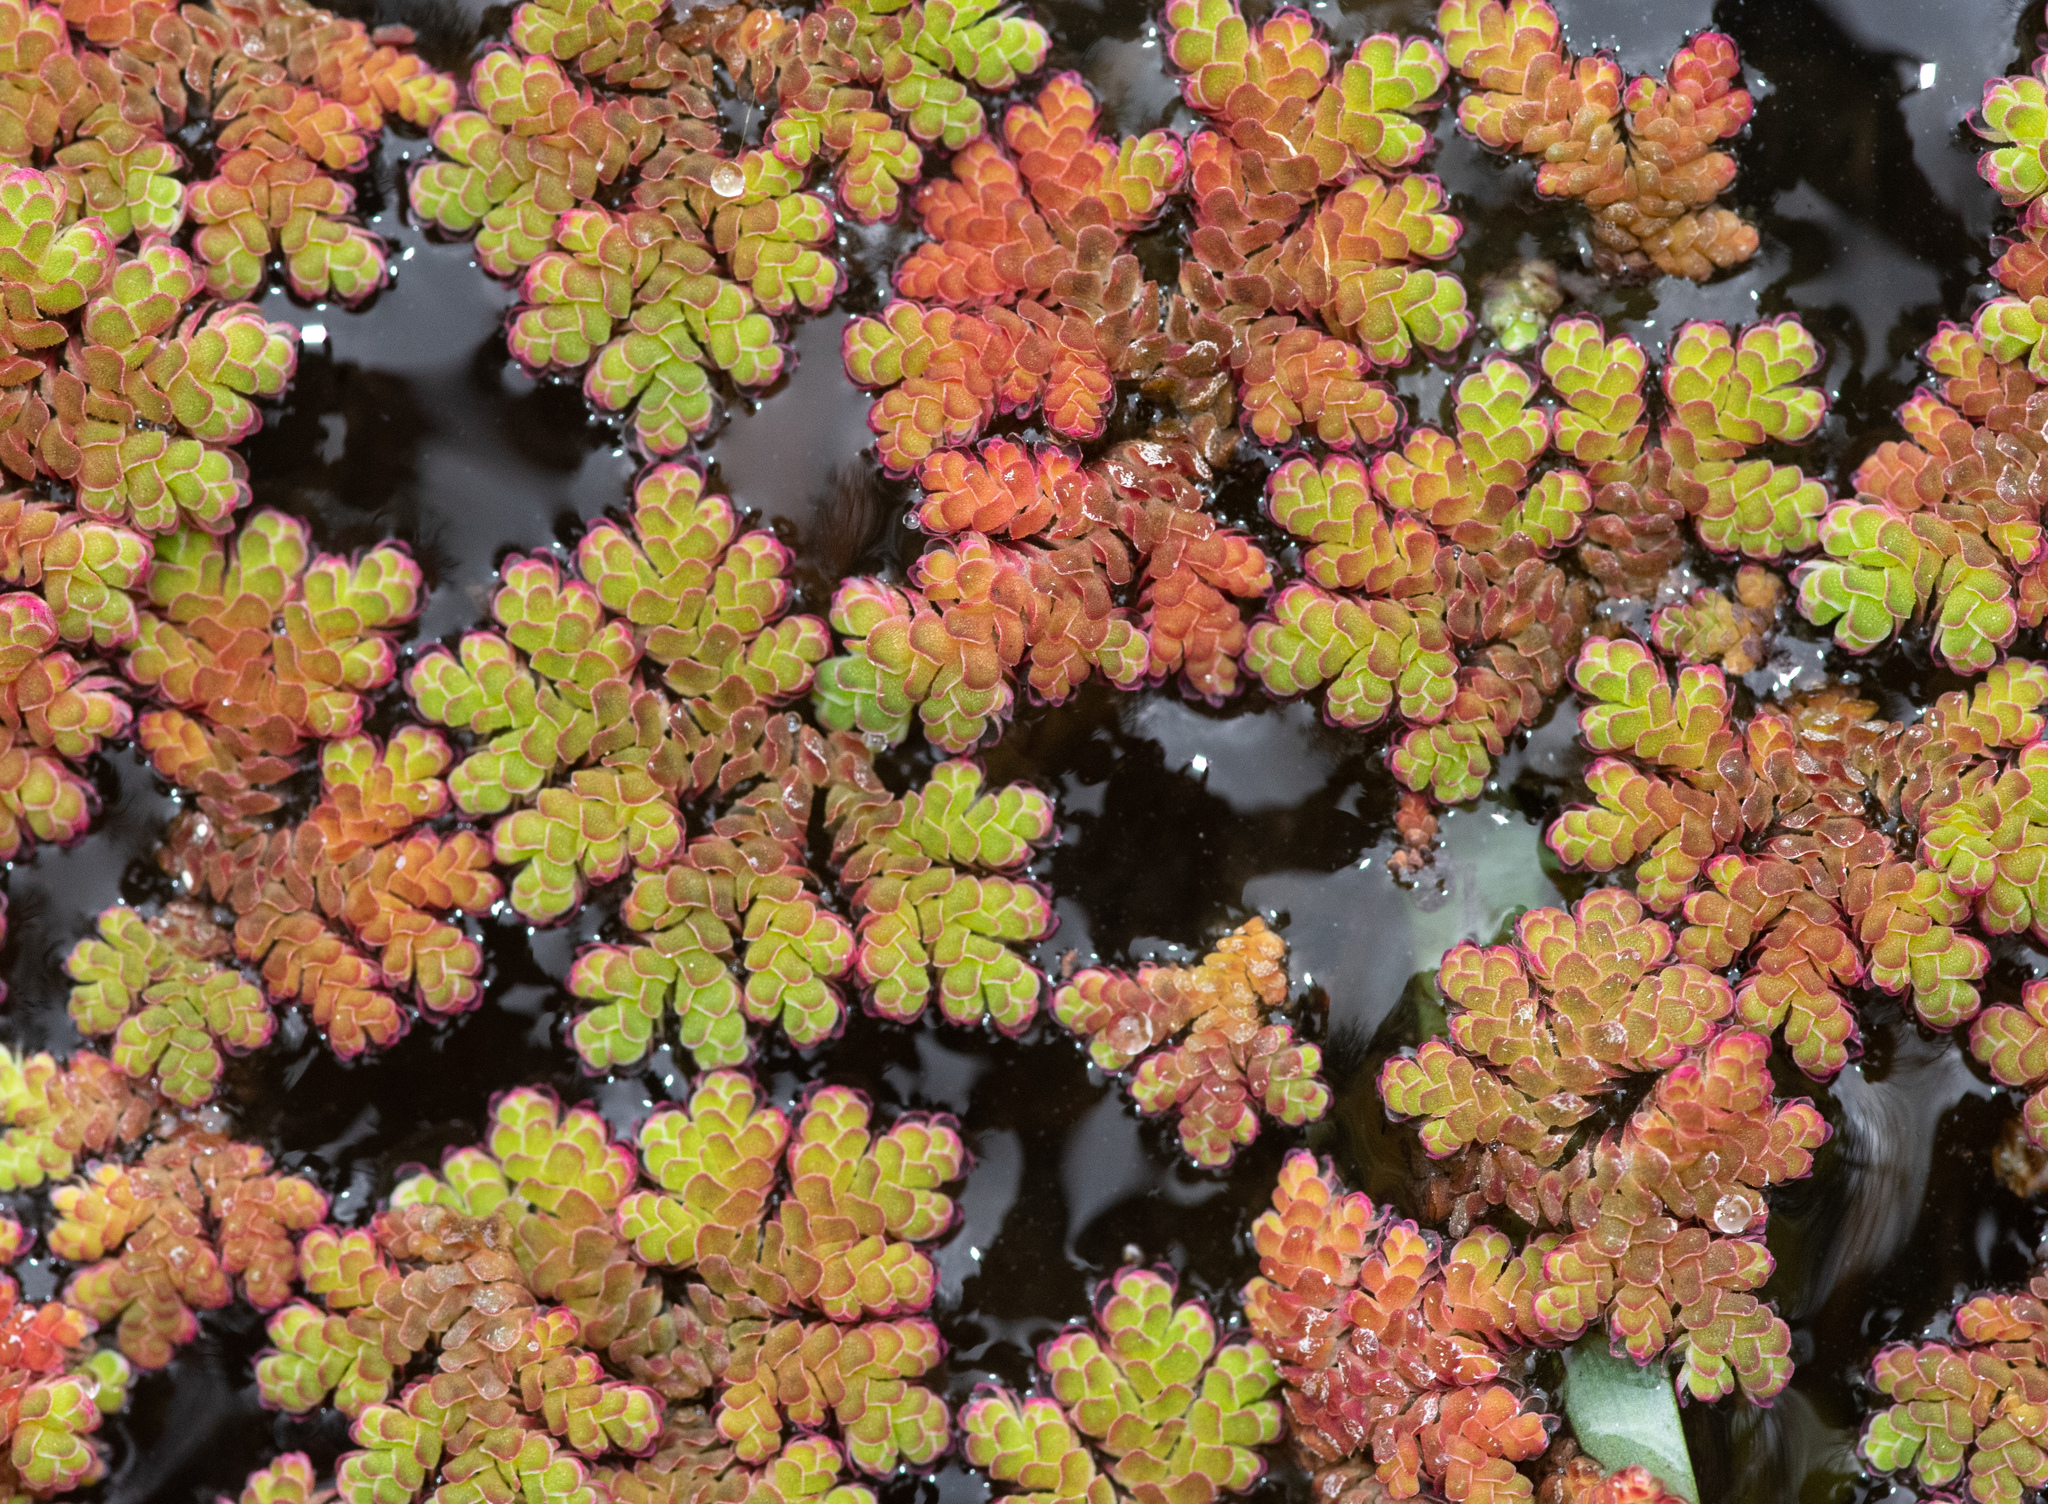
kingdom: Plantae
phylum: Tracheophyta
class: Polypodiopsida
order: Salviniales
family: Salviniaceae
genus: Azolla
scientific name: Azolla filiculoides
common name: Water fern
